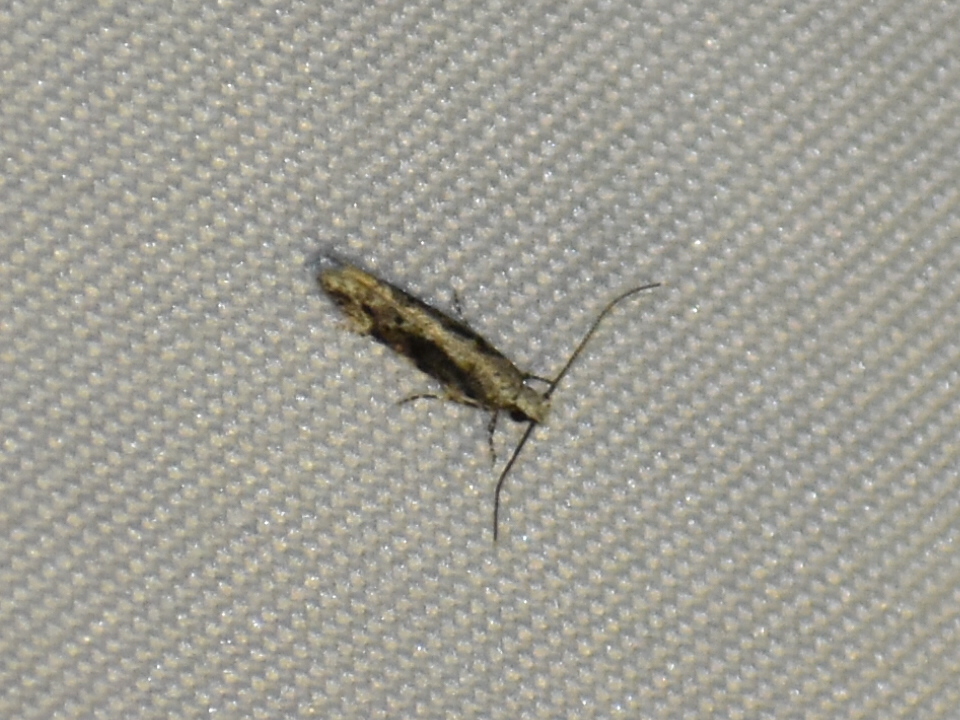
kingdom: Animalia
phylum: Arthropoda
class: Insecta
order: Lepidoptera
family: Gelechiidae
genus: Coleotechnites
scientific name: Coleotechnites florae
